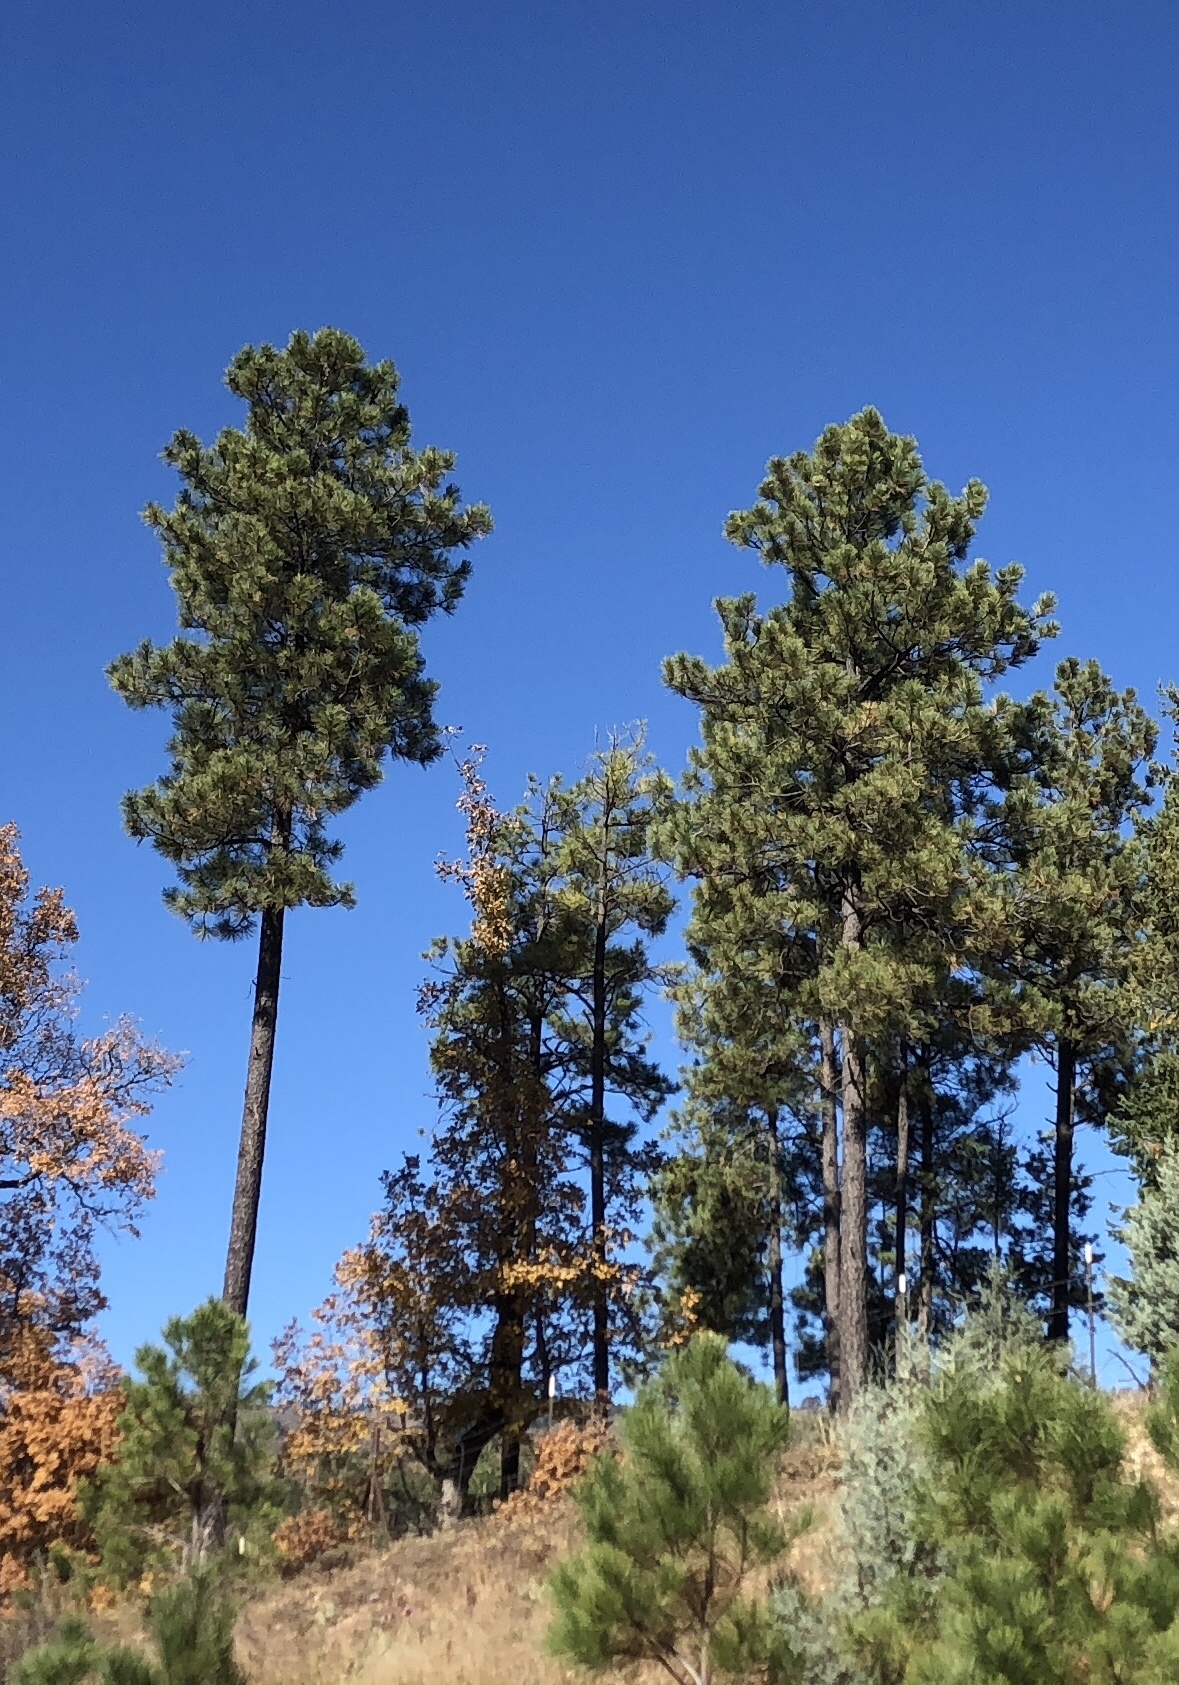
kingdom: Plantae
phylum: Tracheophyta
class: Pinopsida
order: Pinales
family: Pinaceae
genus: Pinus
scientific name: Pinus ponderosa
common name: Western yellow-pine
